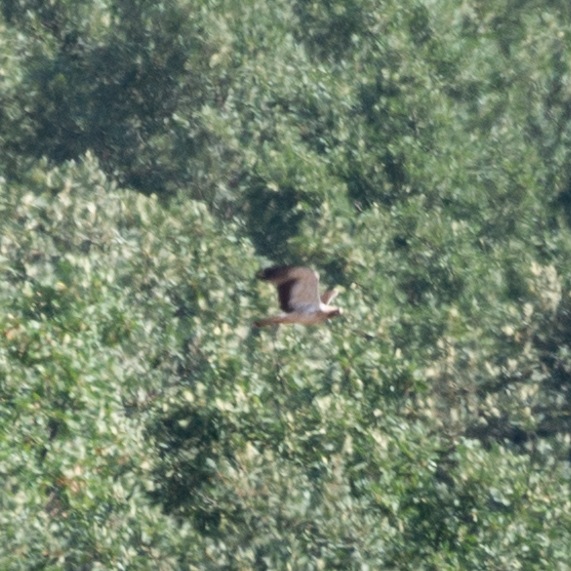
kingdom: Animalia
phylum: Chordata
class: Aves
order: Accipitriformes
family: Accipitridae
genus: Hieraaetus
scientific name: Hieraaetus pennatus
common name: Booted eagle
